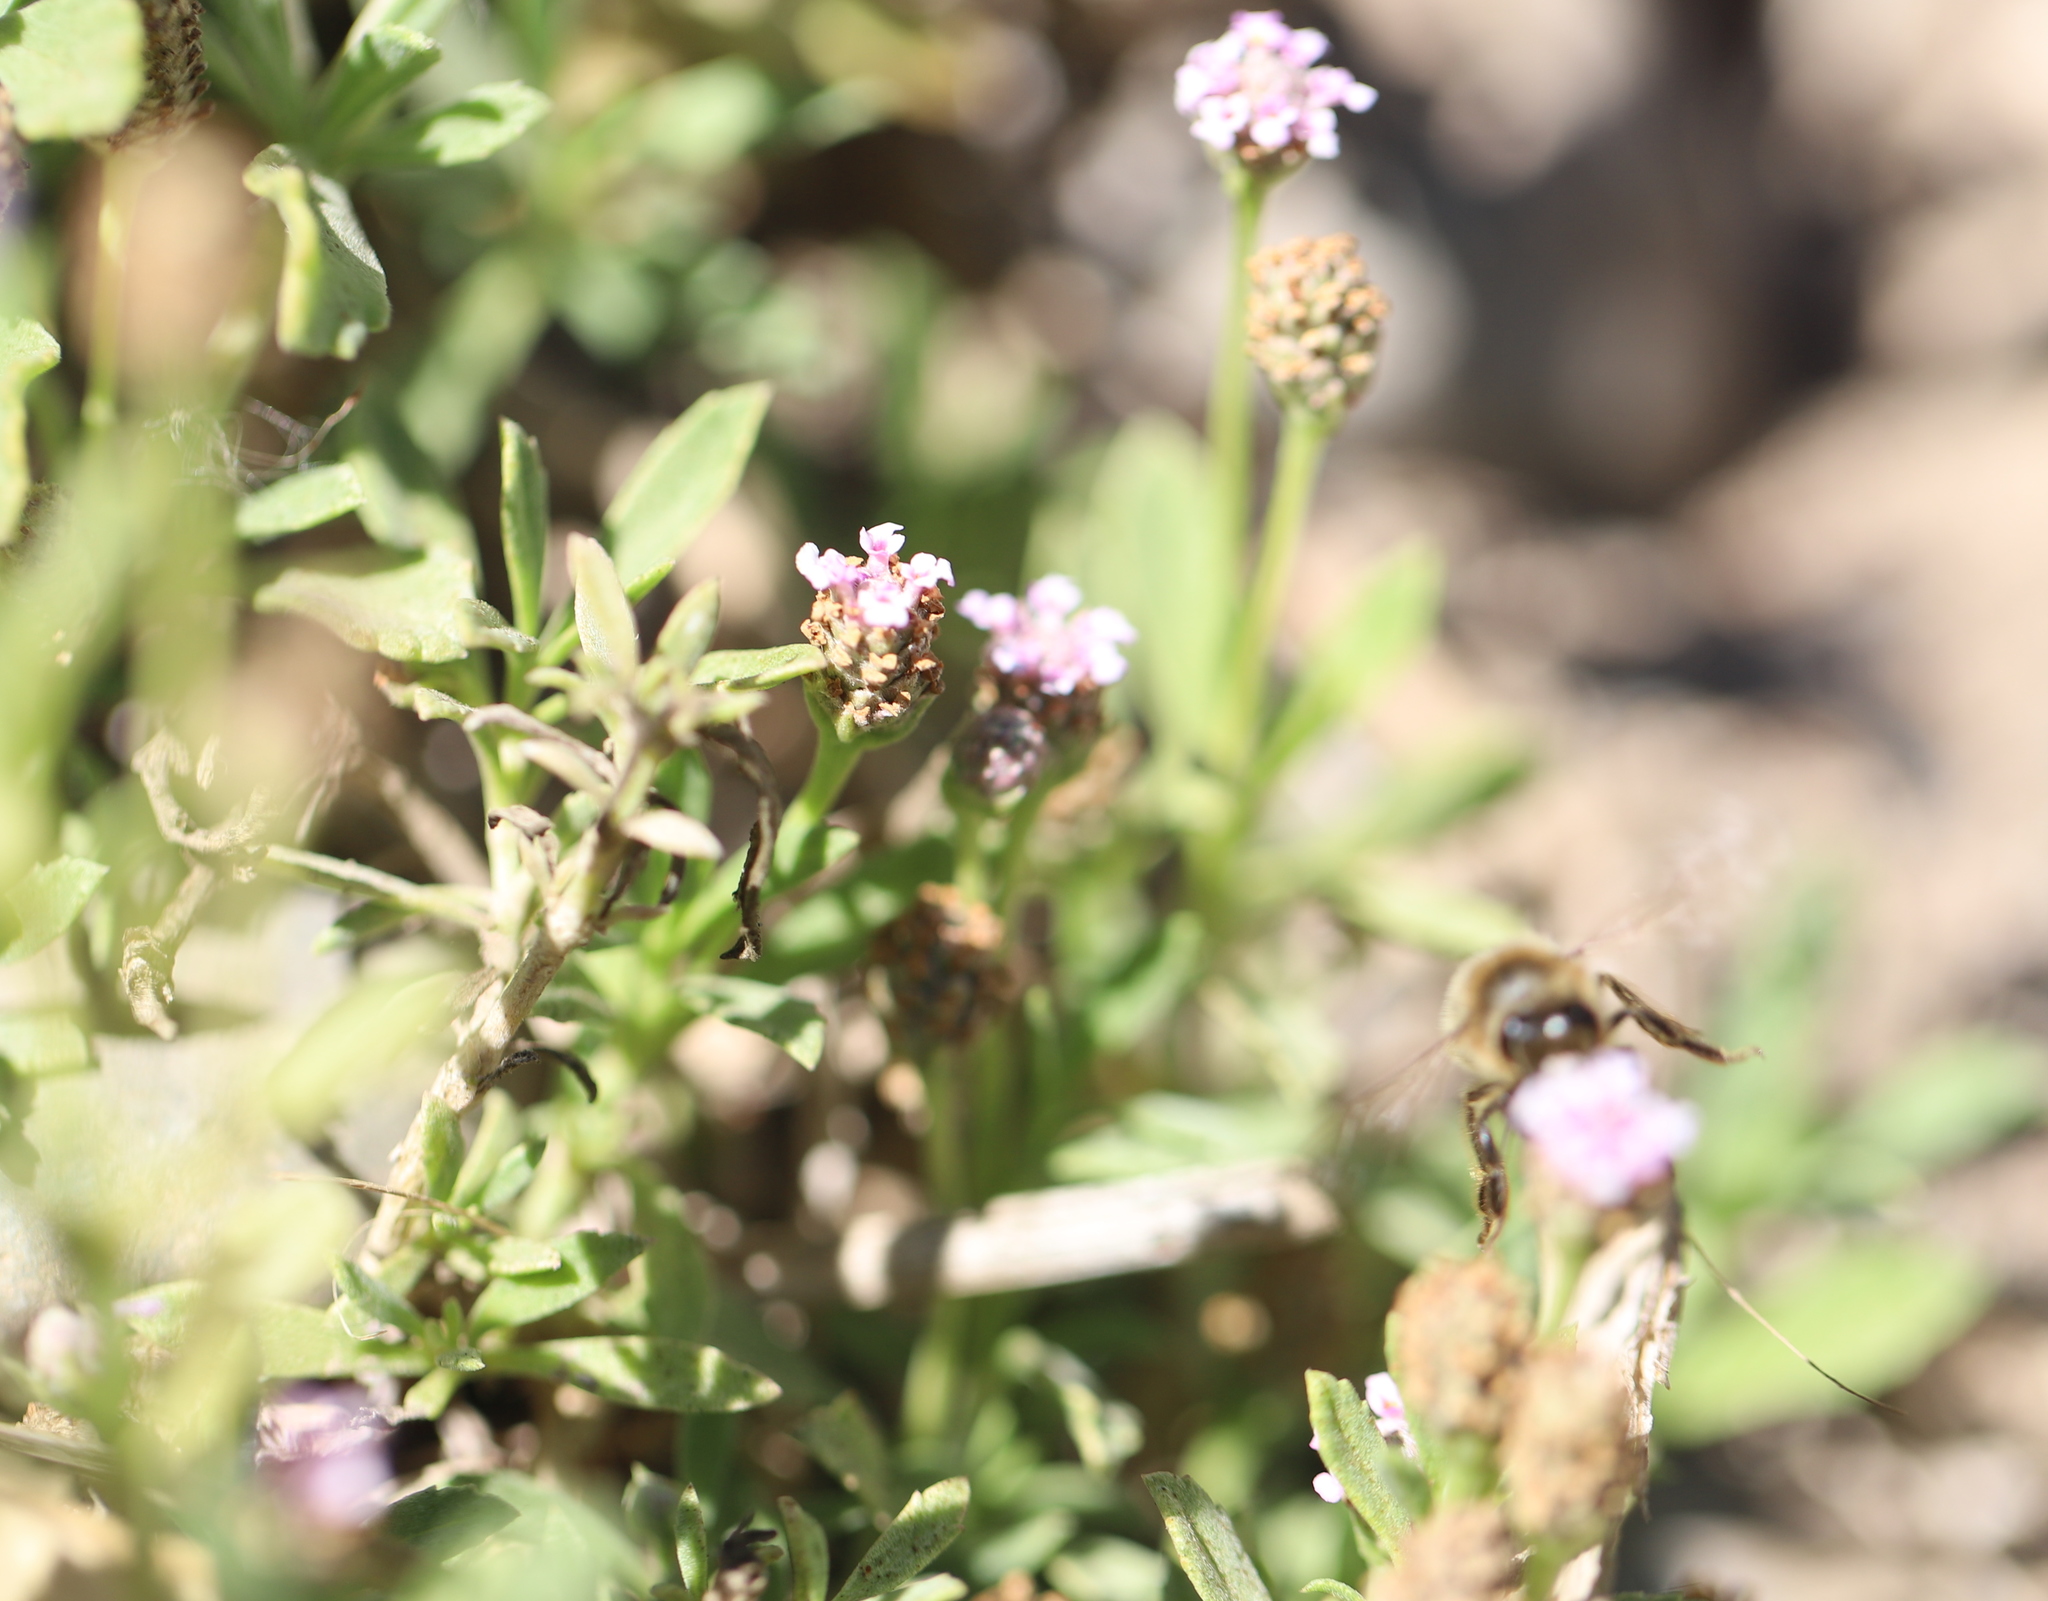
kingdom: Plantae
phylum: Tracheophyta
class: Magnoliopsida
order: Lamiales
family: Verbenaceae
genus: Phyla
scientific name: Phyla nodiflora
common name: Frogfruit
